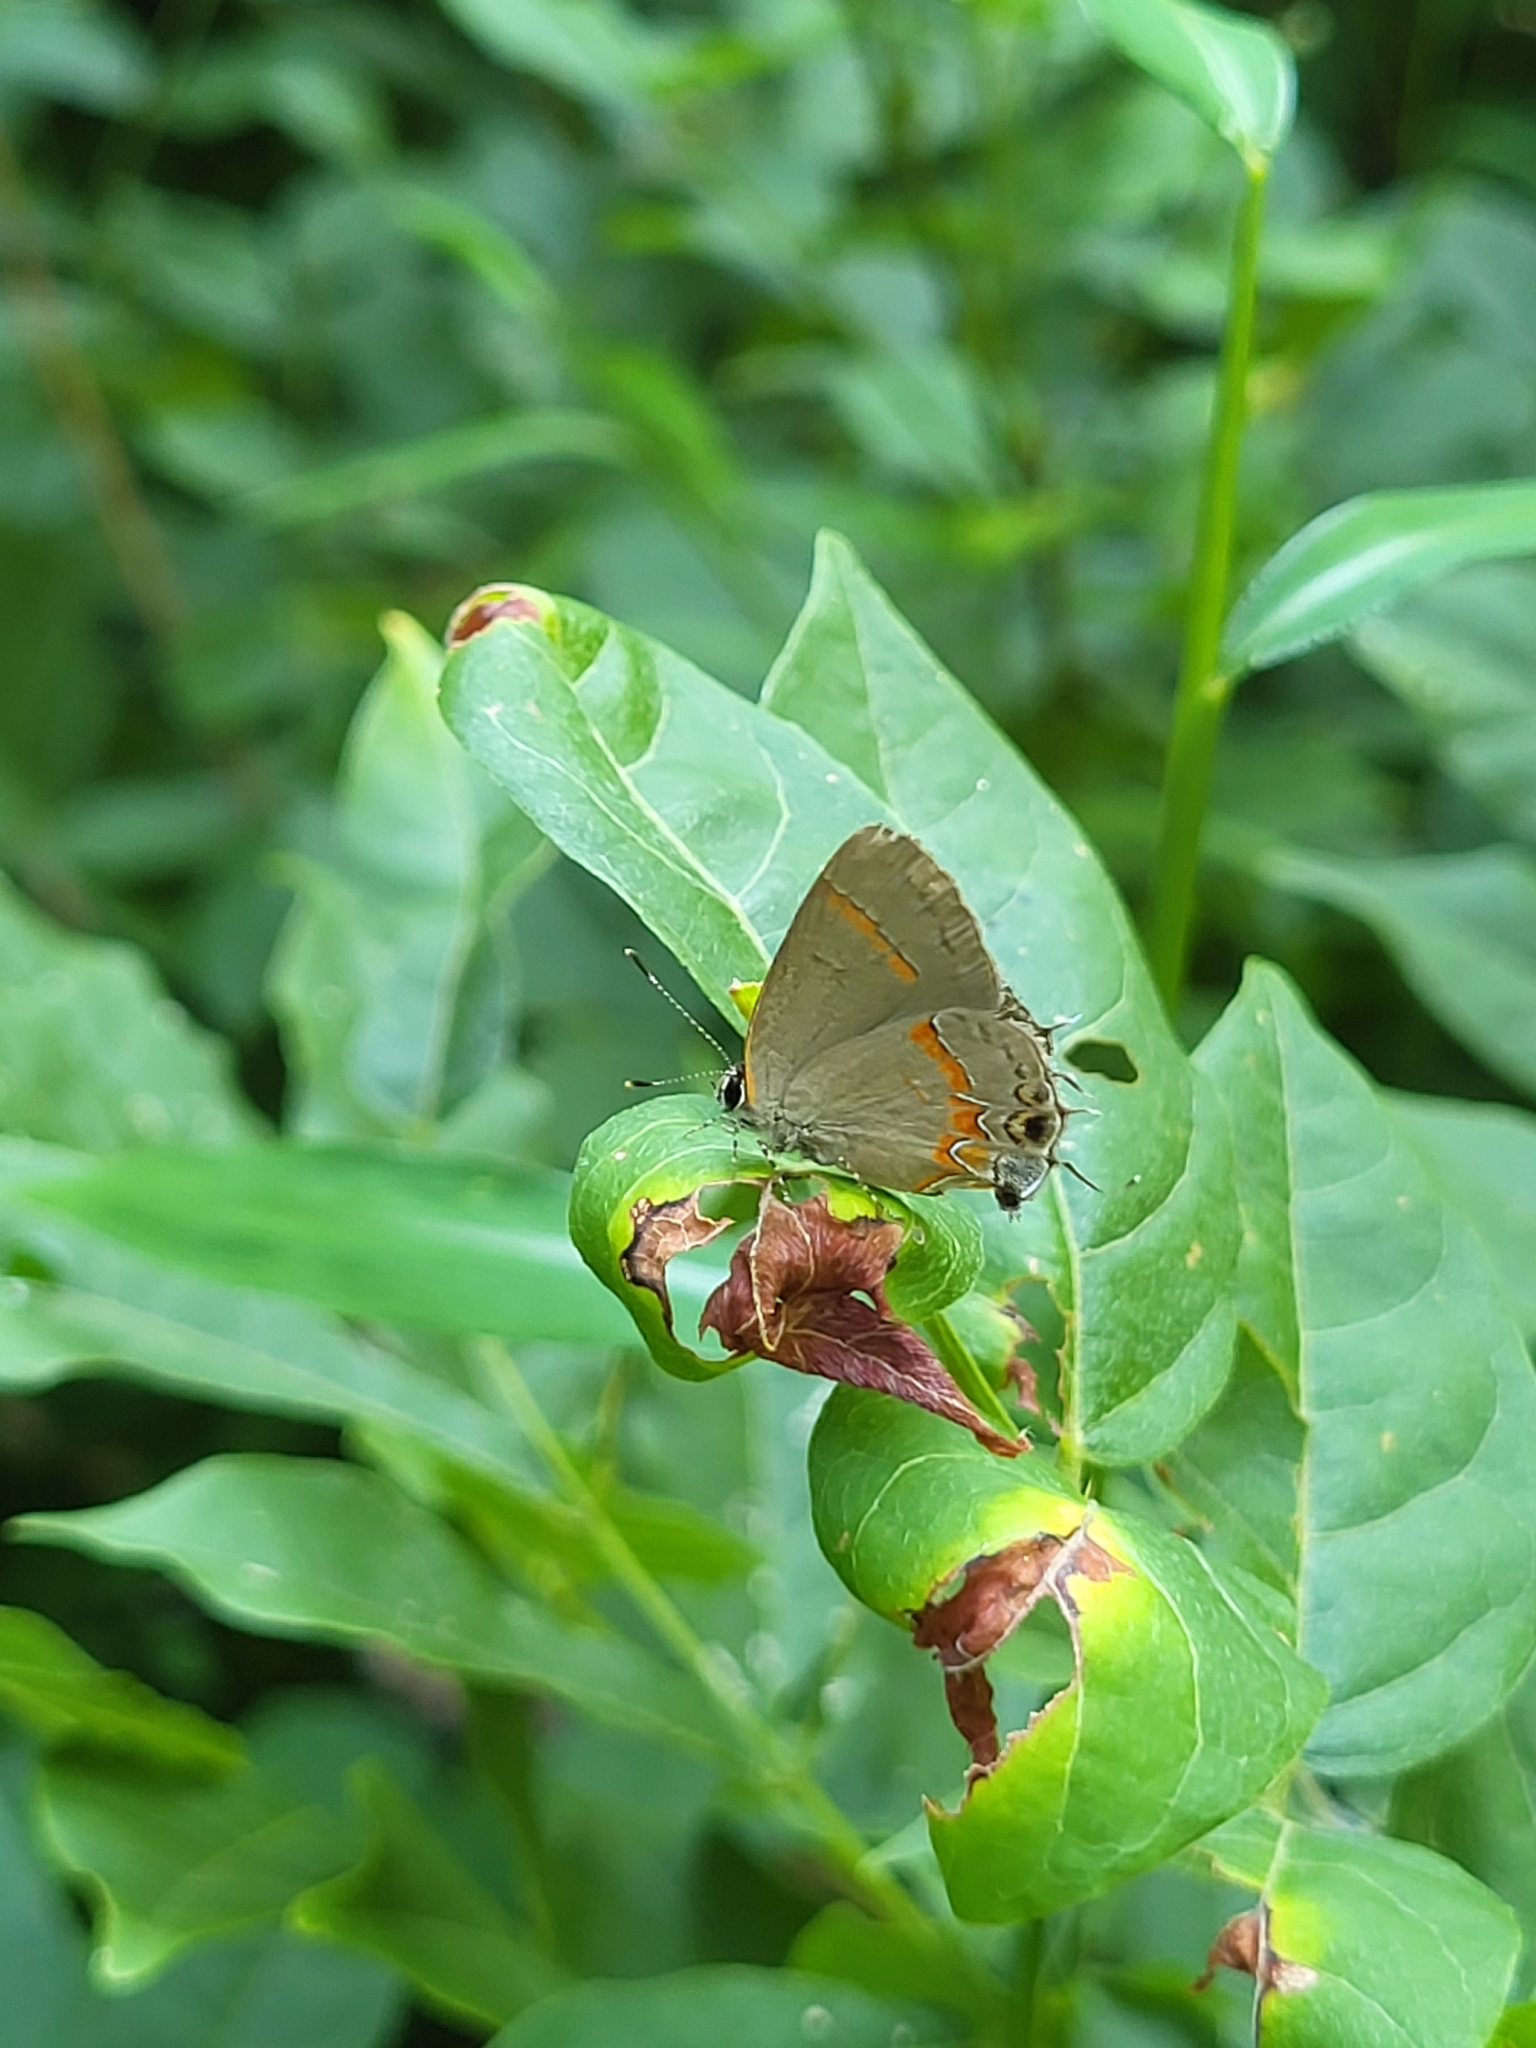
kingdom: Animalia
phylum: Arthropoda
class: Insecta
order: Lepidoptera
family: Lycaenidae
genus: Calycopis
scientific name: Calycopis cecrops
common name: Red-banded hairstreak
